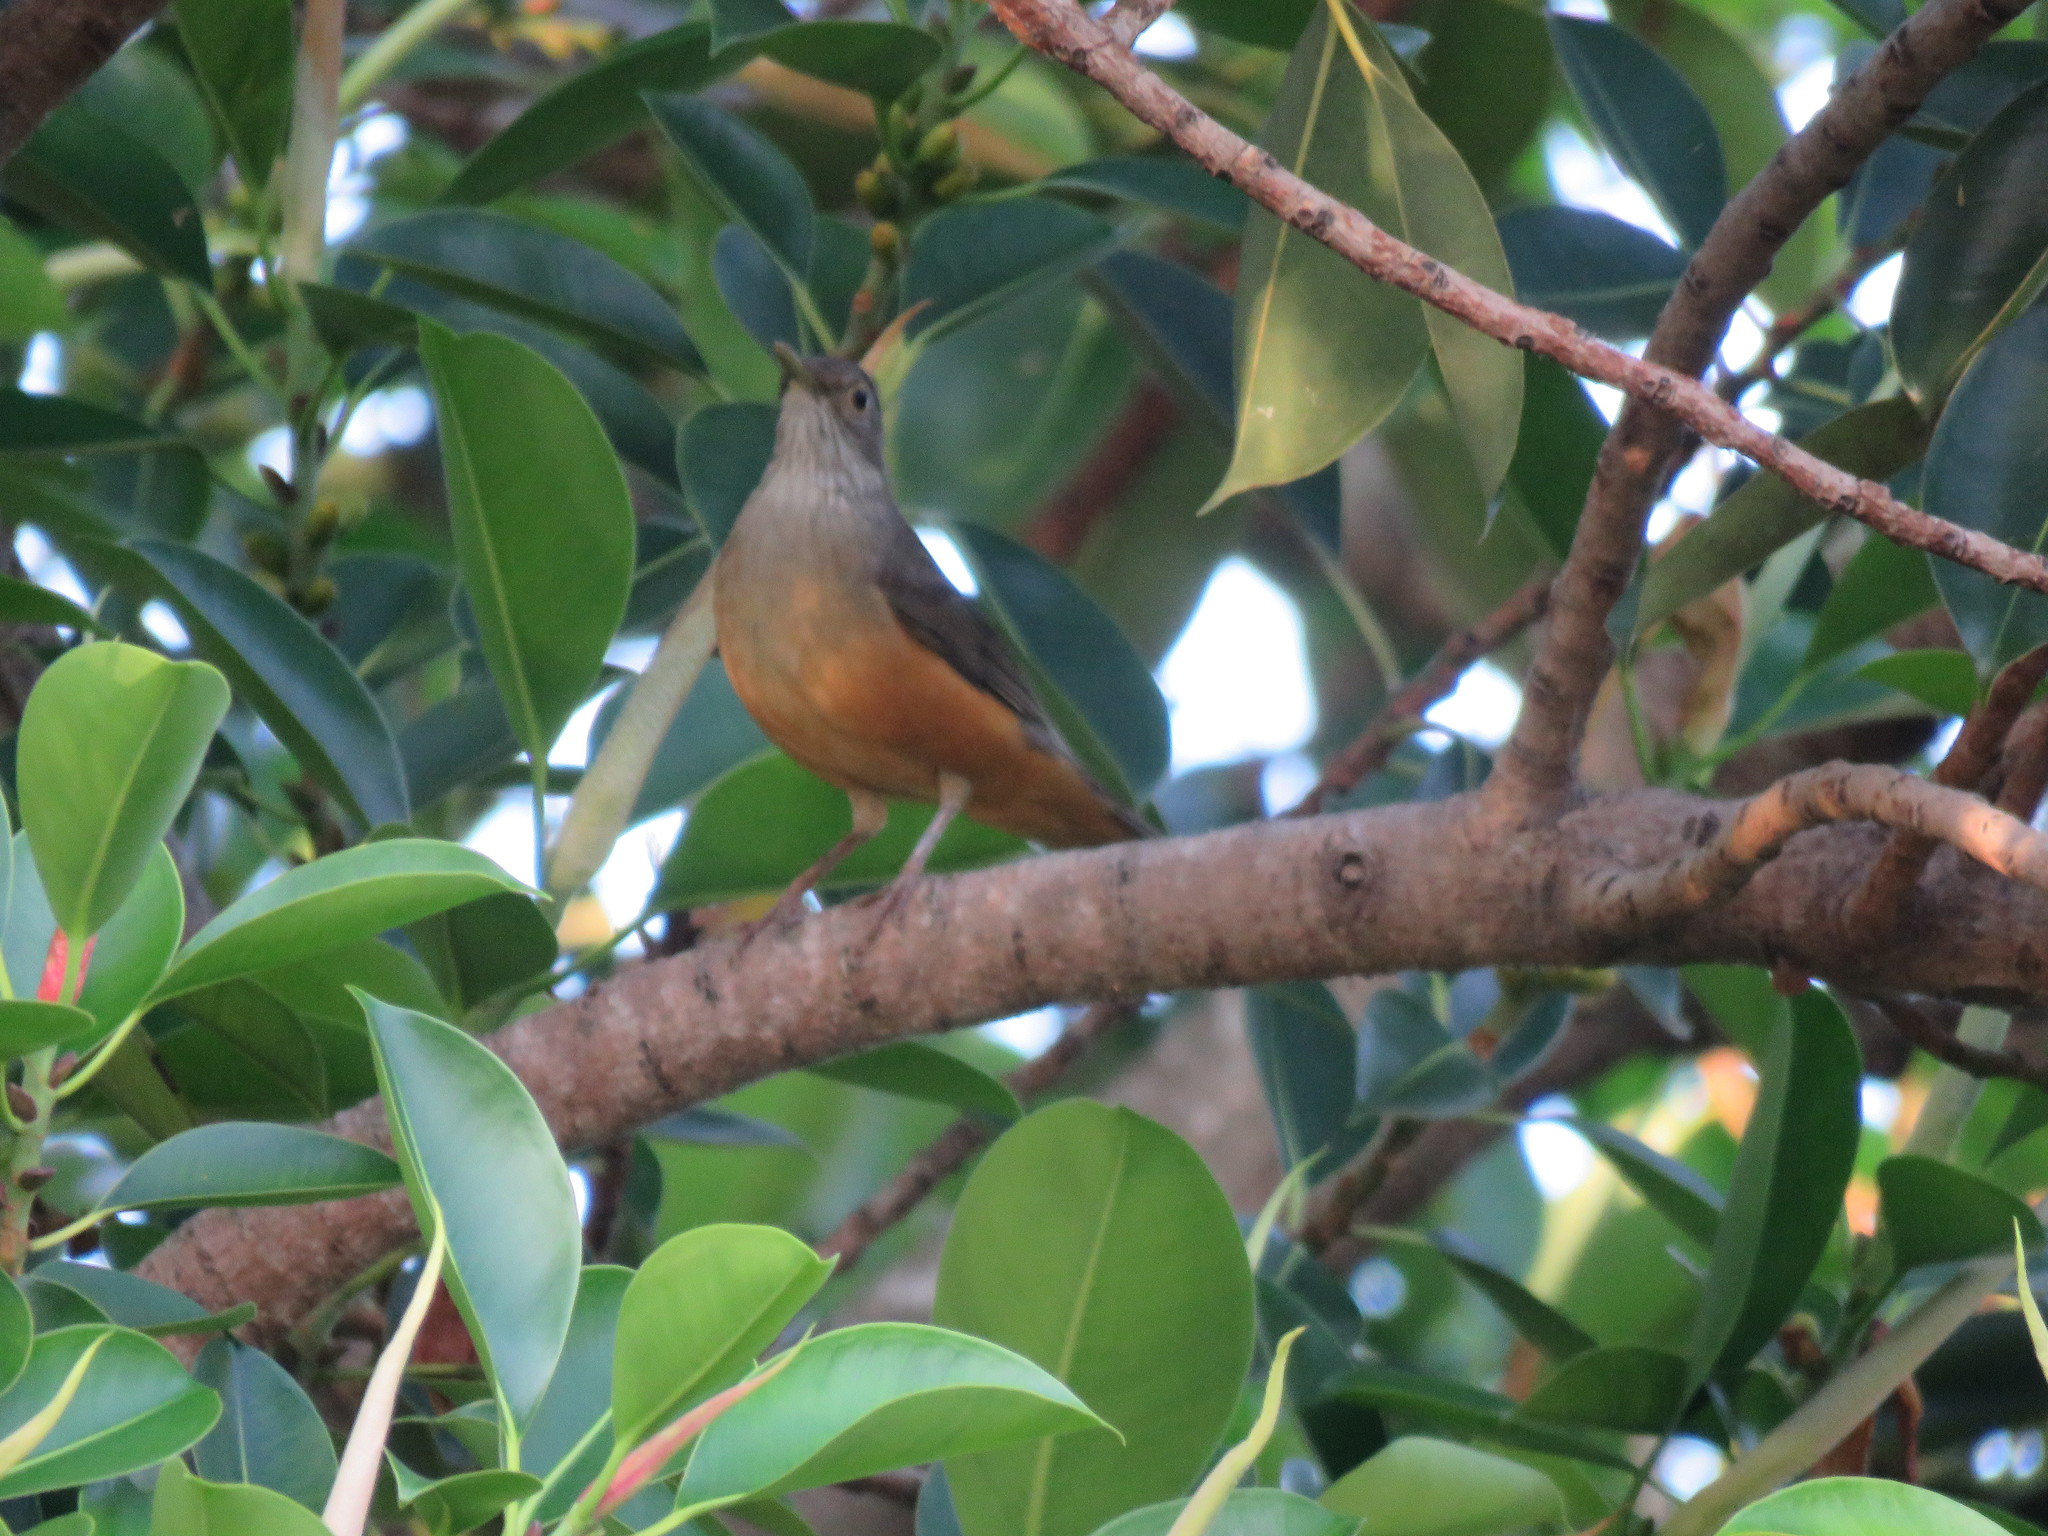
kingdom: Animalia
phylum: Chordata
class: Aves
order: Passeriformes
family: Turdidae
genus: Turdus
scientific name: Turdus rufiventris
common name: Rufous-bellied thrush
